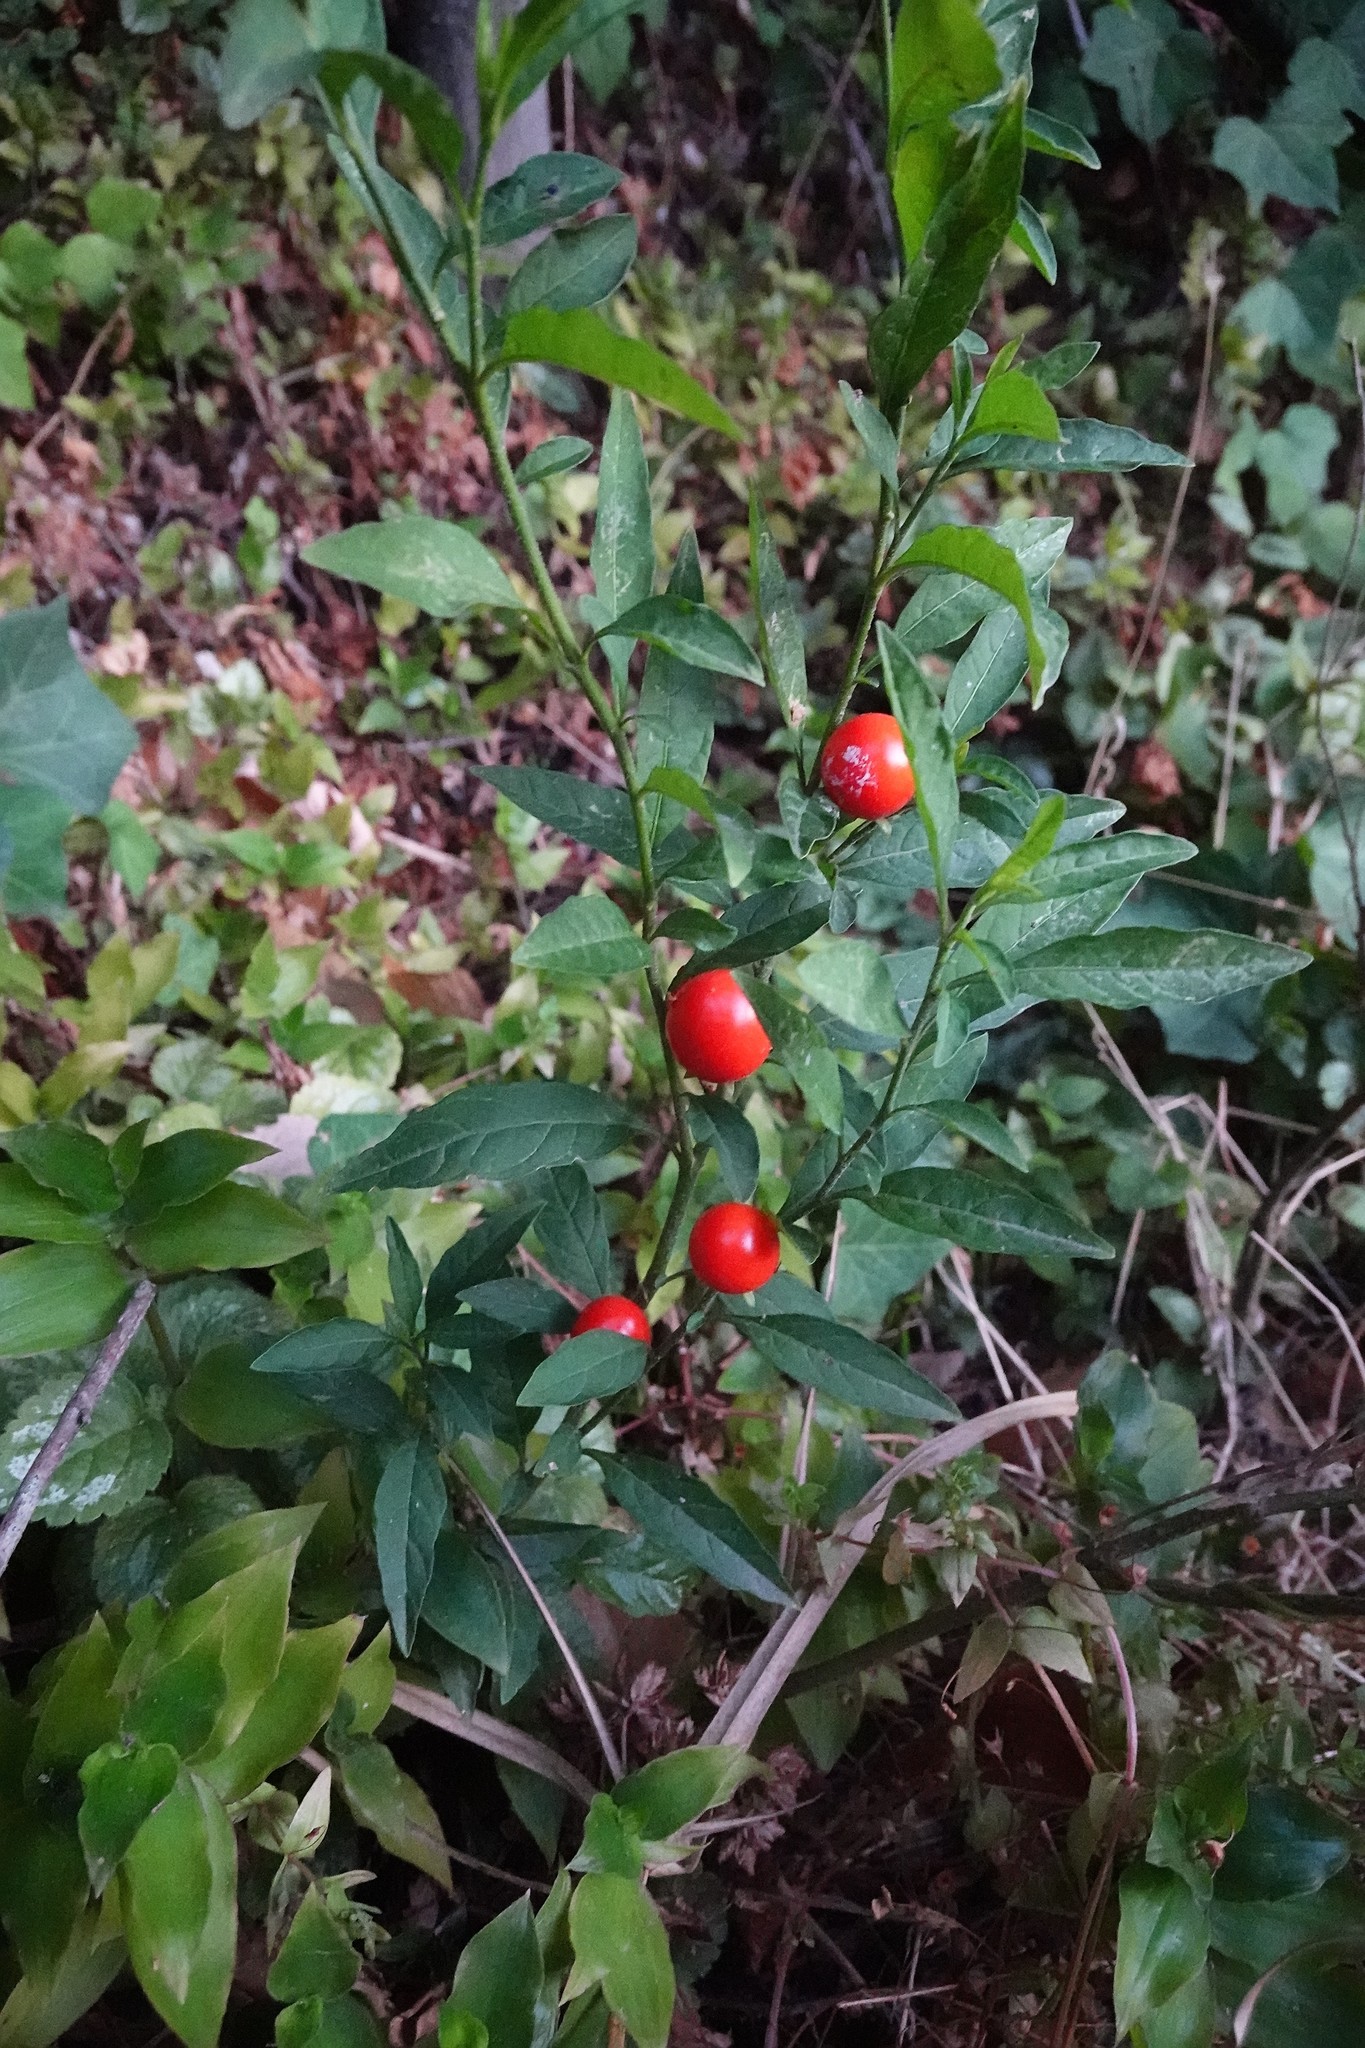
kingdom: Plantae
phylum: Tracheophyta
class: Magnoliopsida
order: Solanales
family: Solanaceae
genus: Solanum
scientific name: Solanum pseudocapsicum
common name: Jerusalem cherry
